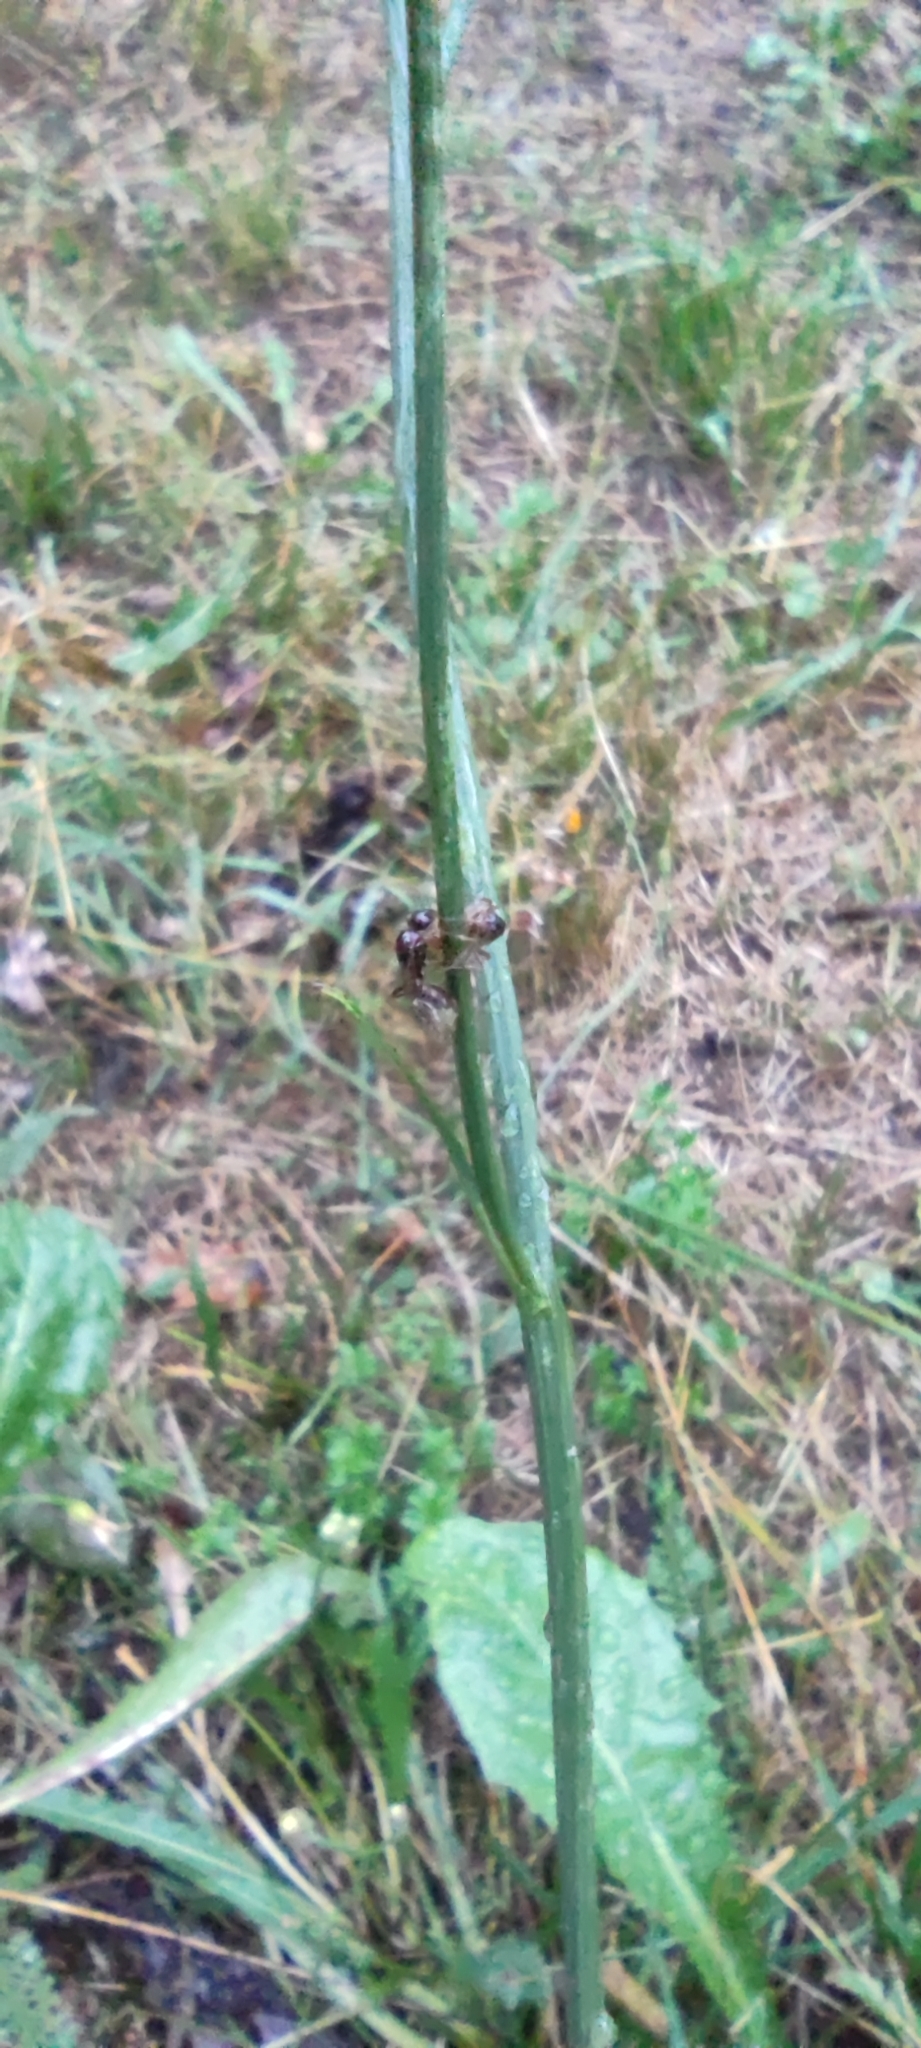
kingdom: Plantae
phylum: Tracheophyta
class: Magnoliopsida
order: Asterales
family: Asteraceae
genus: Scorzoneroides
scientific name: Scorzoneroides autumnalis
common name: Autumn hawkbit
